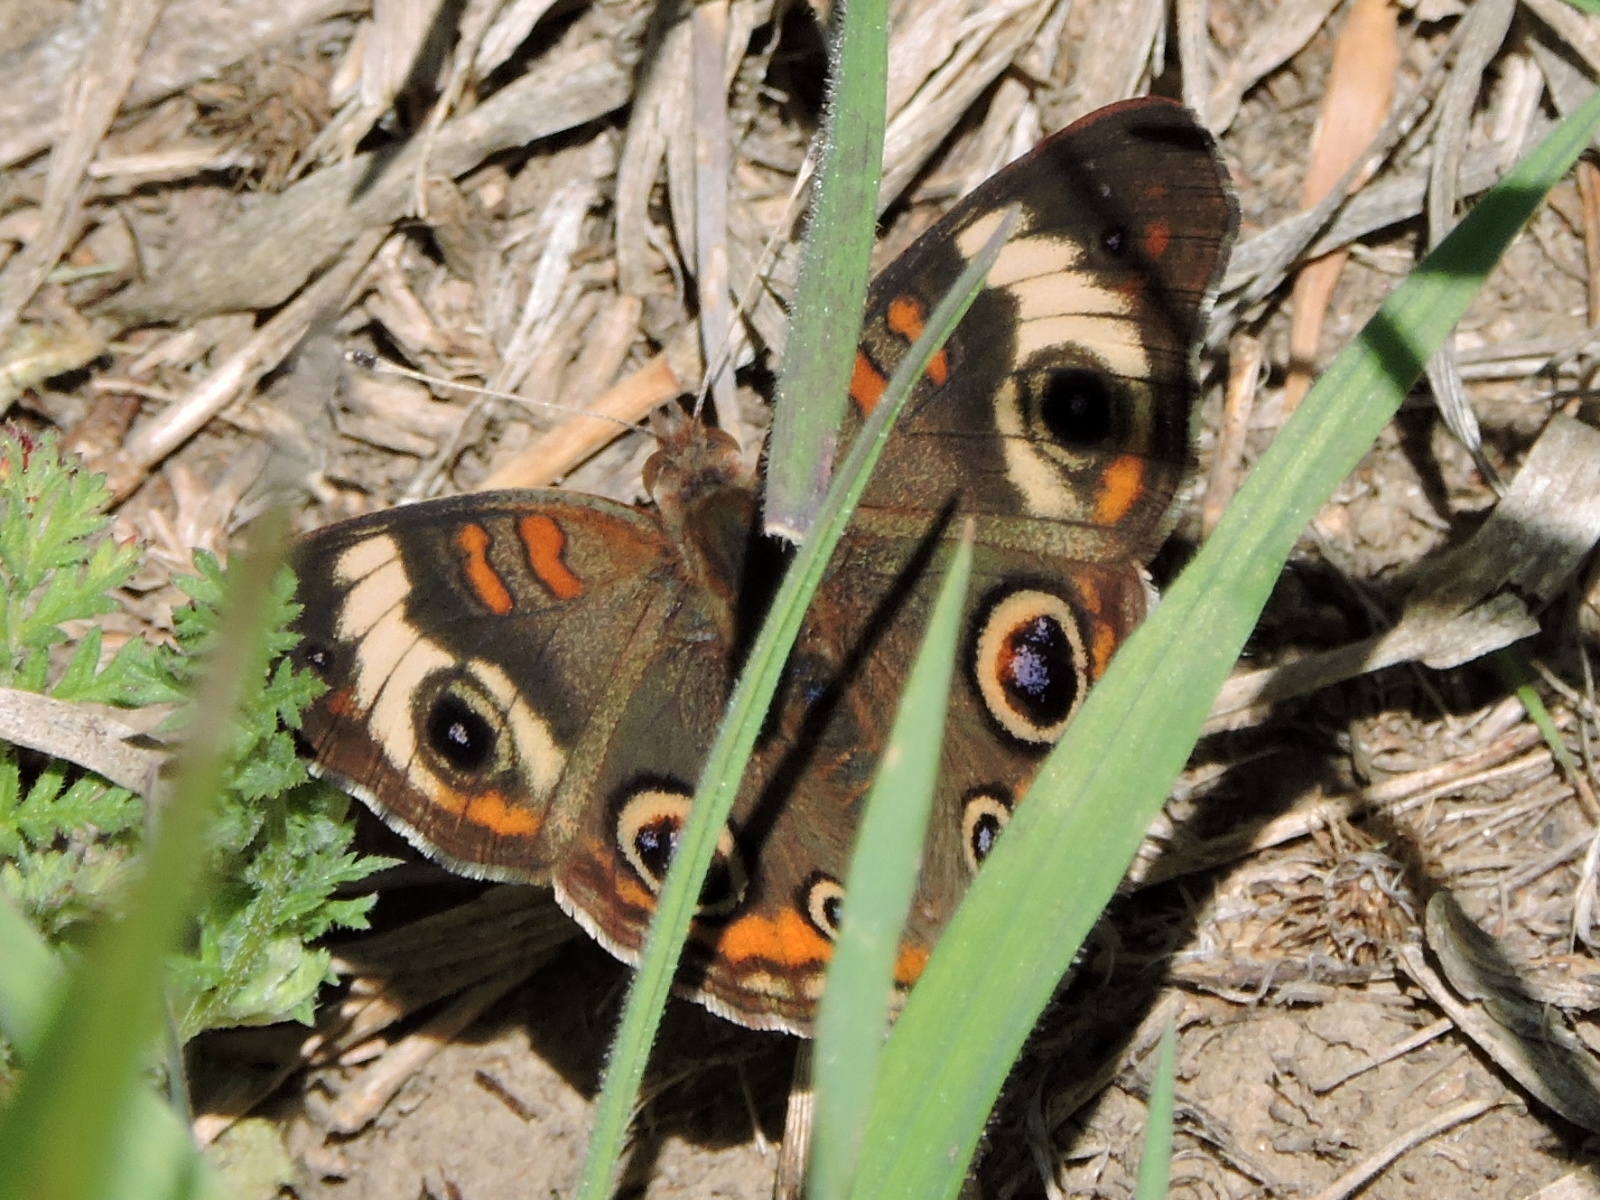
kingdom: Animalia
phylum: Arthropoda
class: Insecta
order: Lepidoptera
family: Nymphalidae
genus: Junonia
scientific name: Junonia coenia
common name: Common buckeye
